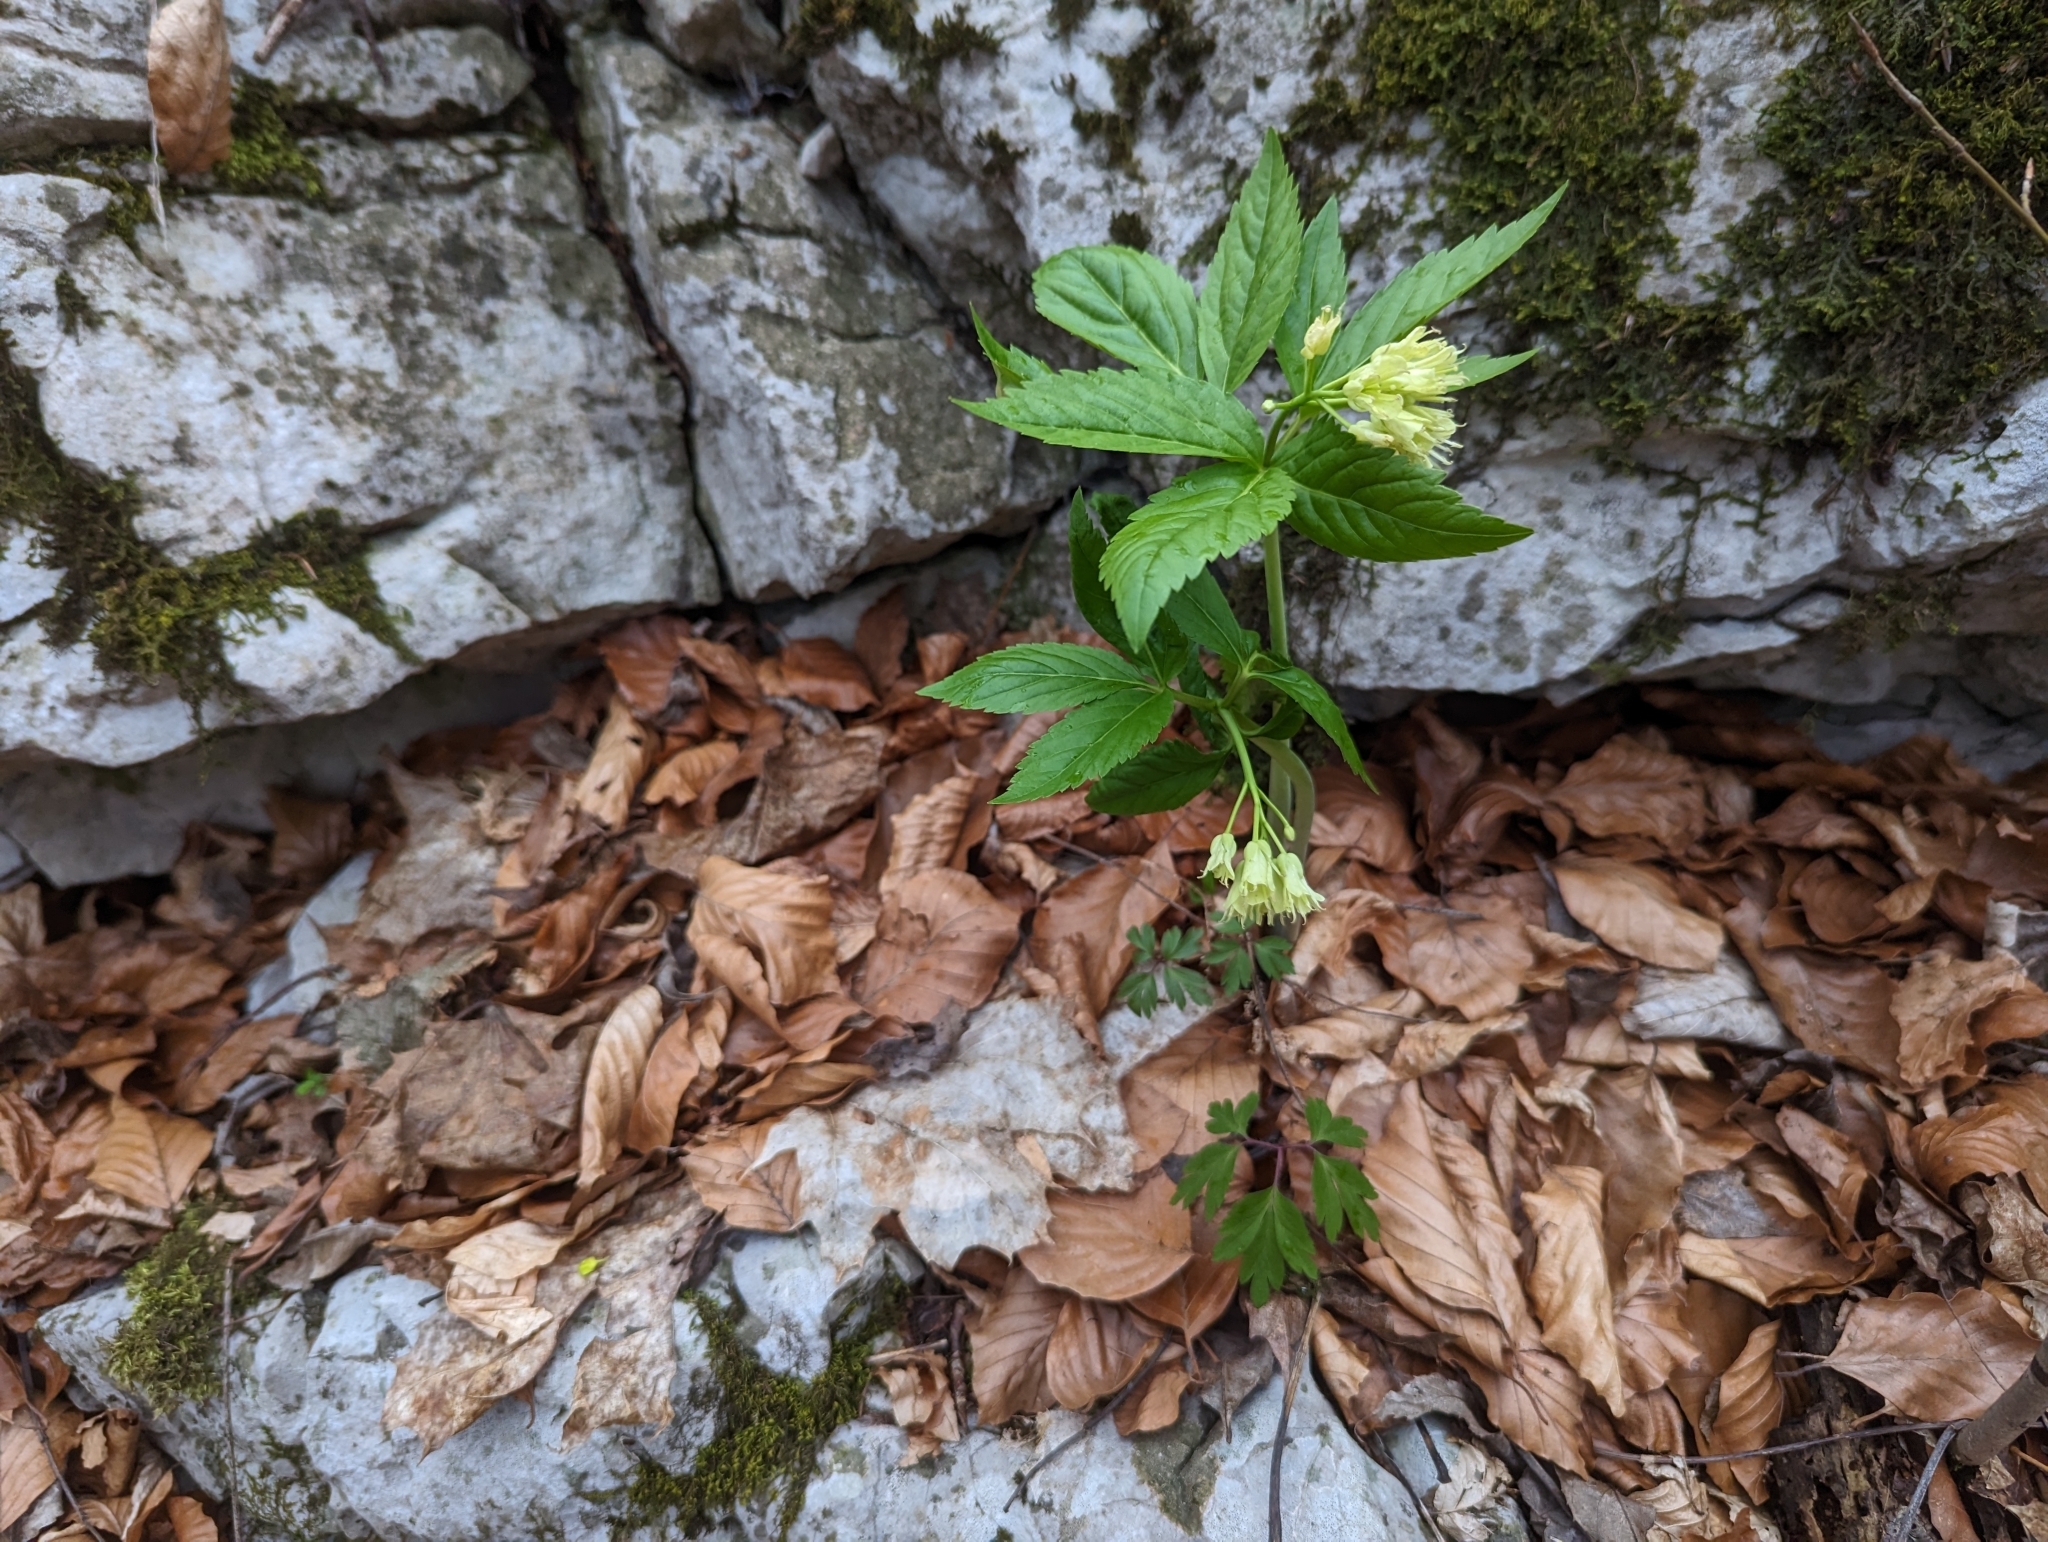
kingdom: Plantae
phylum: Tracheophyta
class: Magnoliopsida
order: Brassicales
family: Brassicaceae
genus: Cardamine
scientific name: Cardamine enneaphyllos
